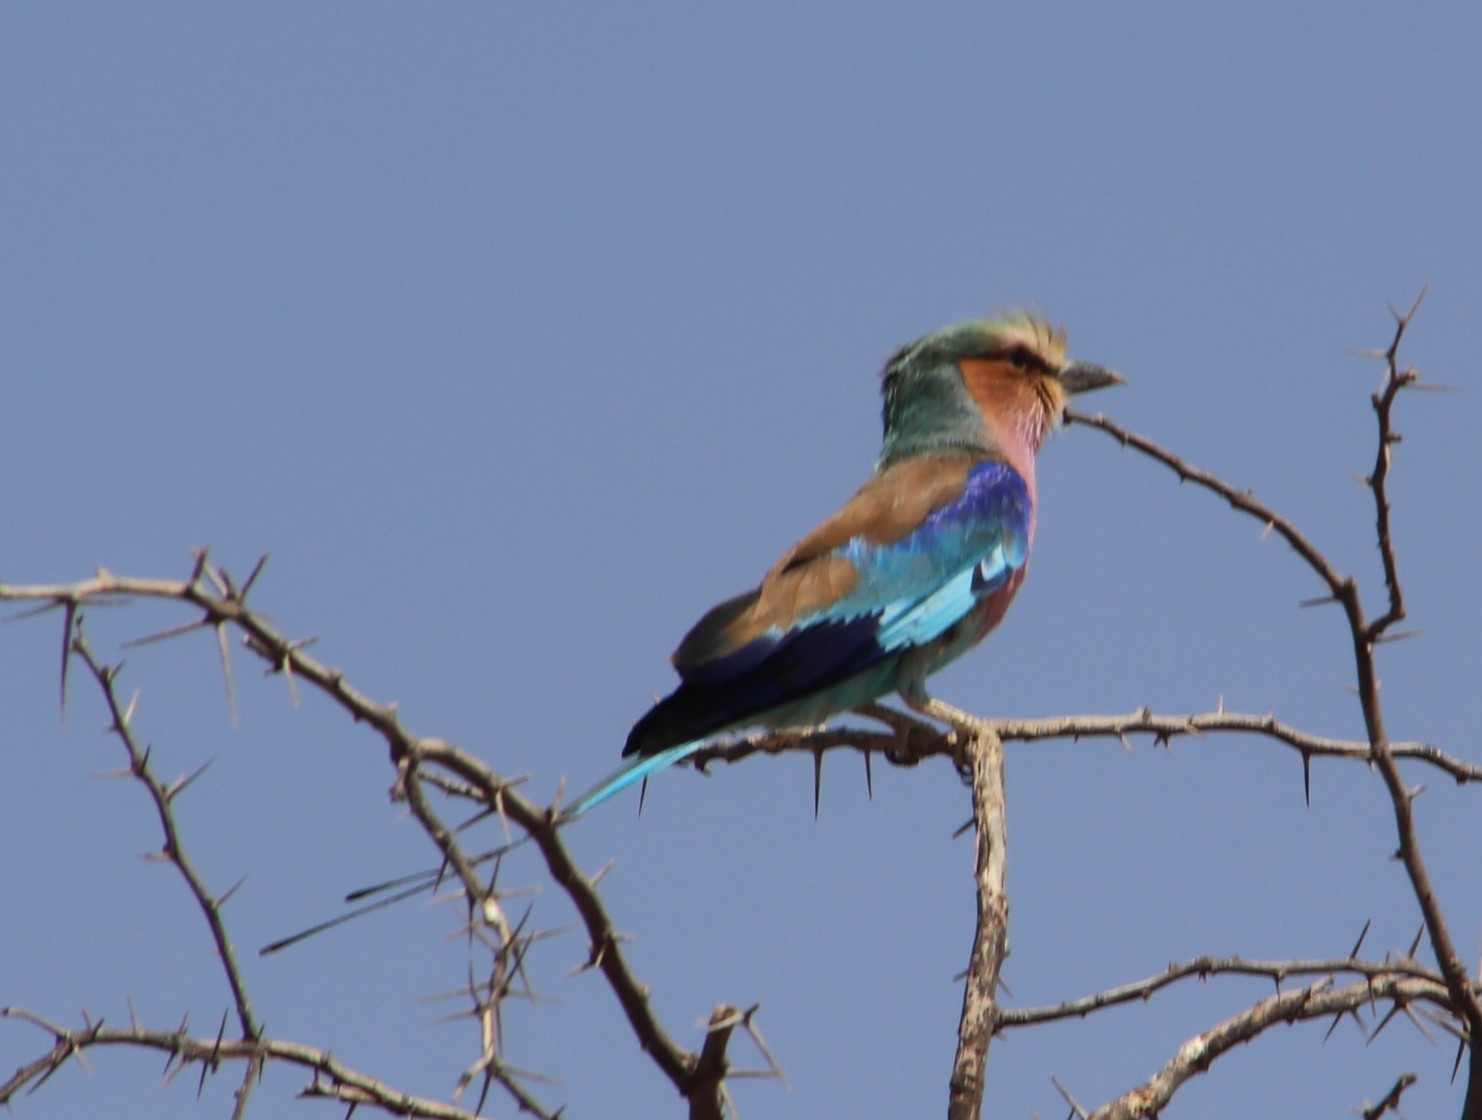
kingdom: Animalia
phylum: Chordata
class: Aves
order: Coraciiformes
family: Coraciidae
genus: Coracias
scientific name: Coracias caudatus
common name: Lilac-breasted roller
